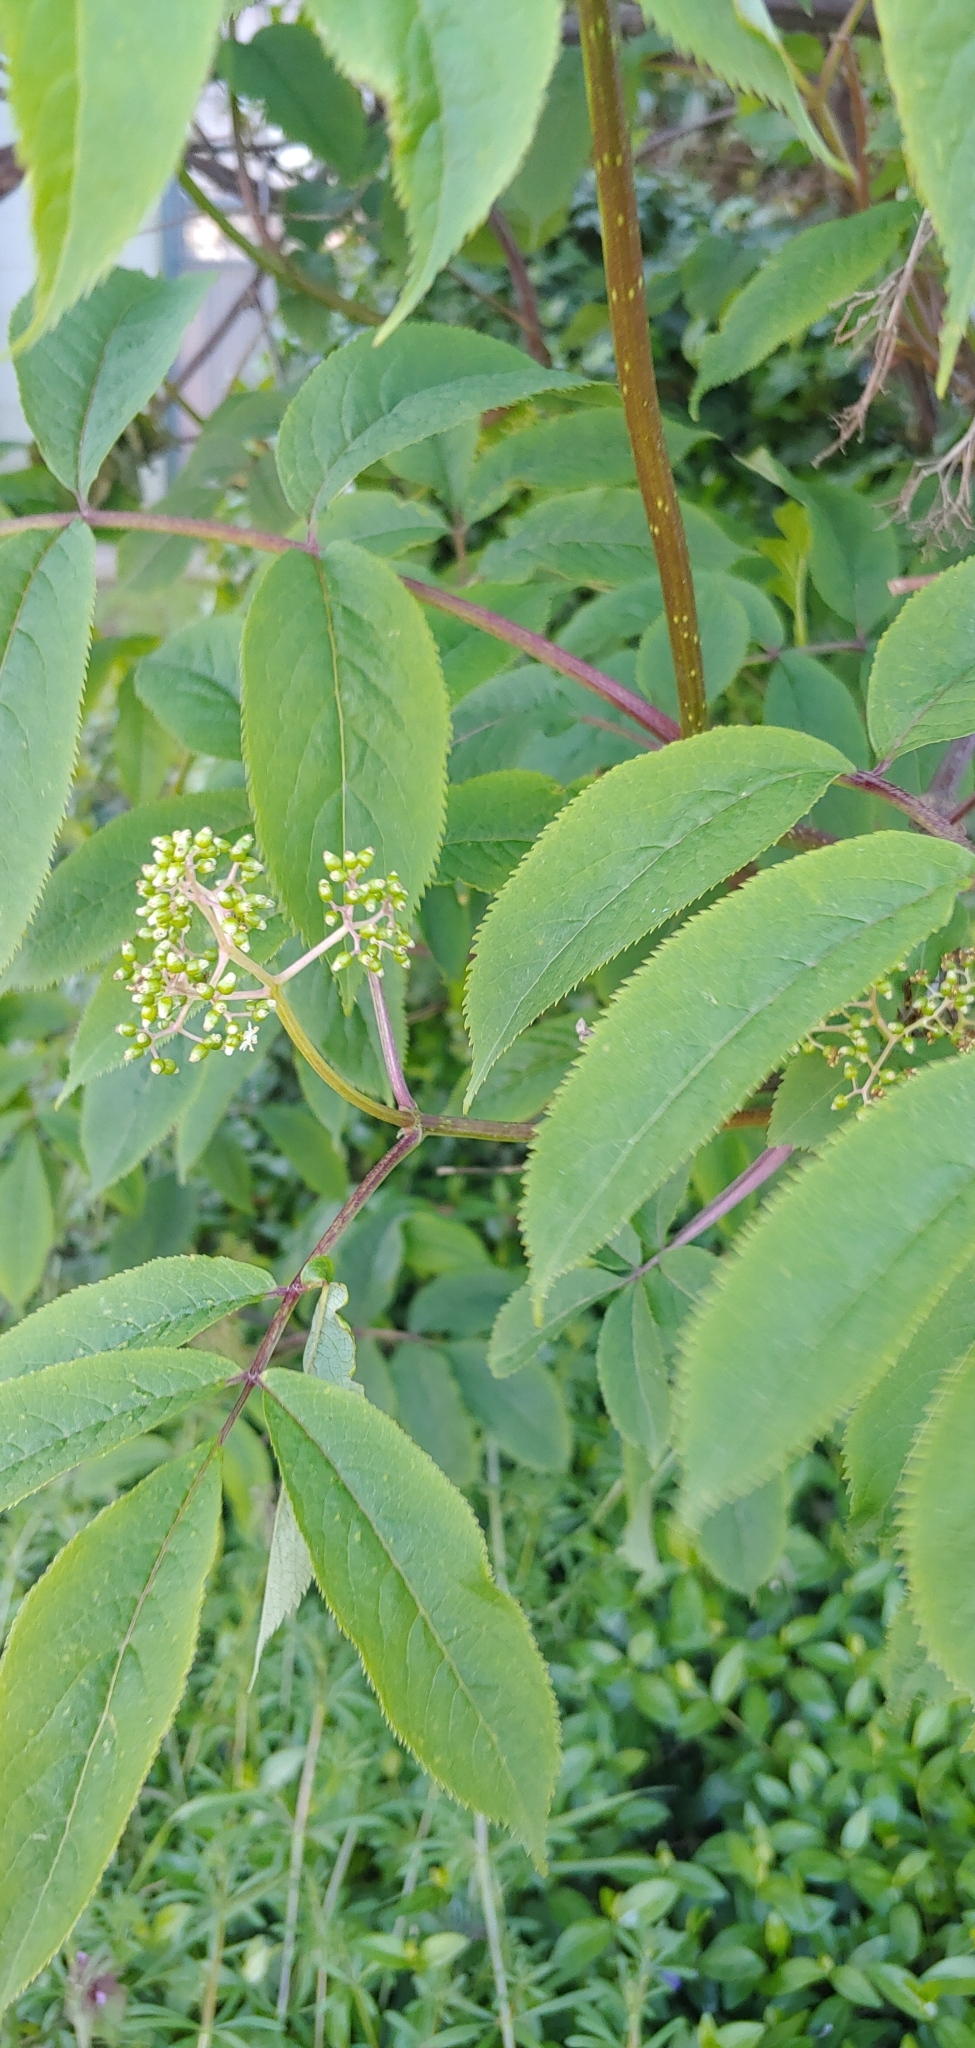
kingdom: Plantae
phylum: Tracheophyta
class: Magnoliopsida
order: Dipsacales
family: Viburnaceae
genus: Sambucus
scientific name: Sambucus racemosa
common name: Red-berried elder
